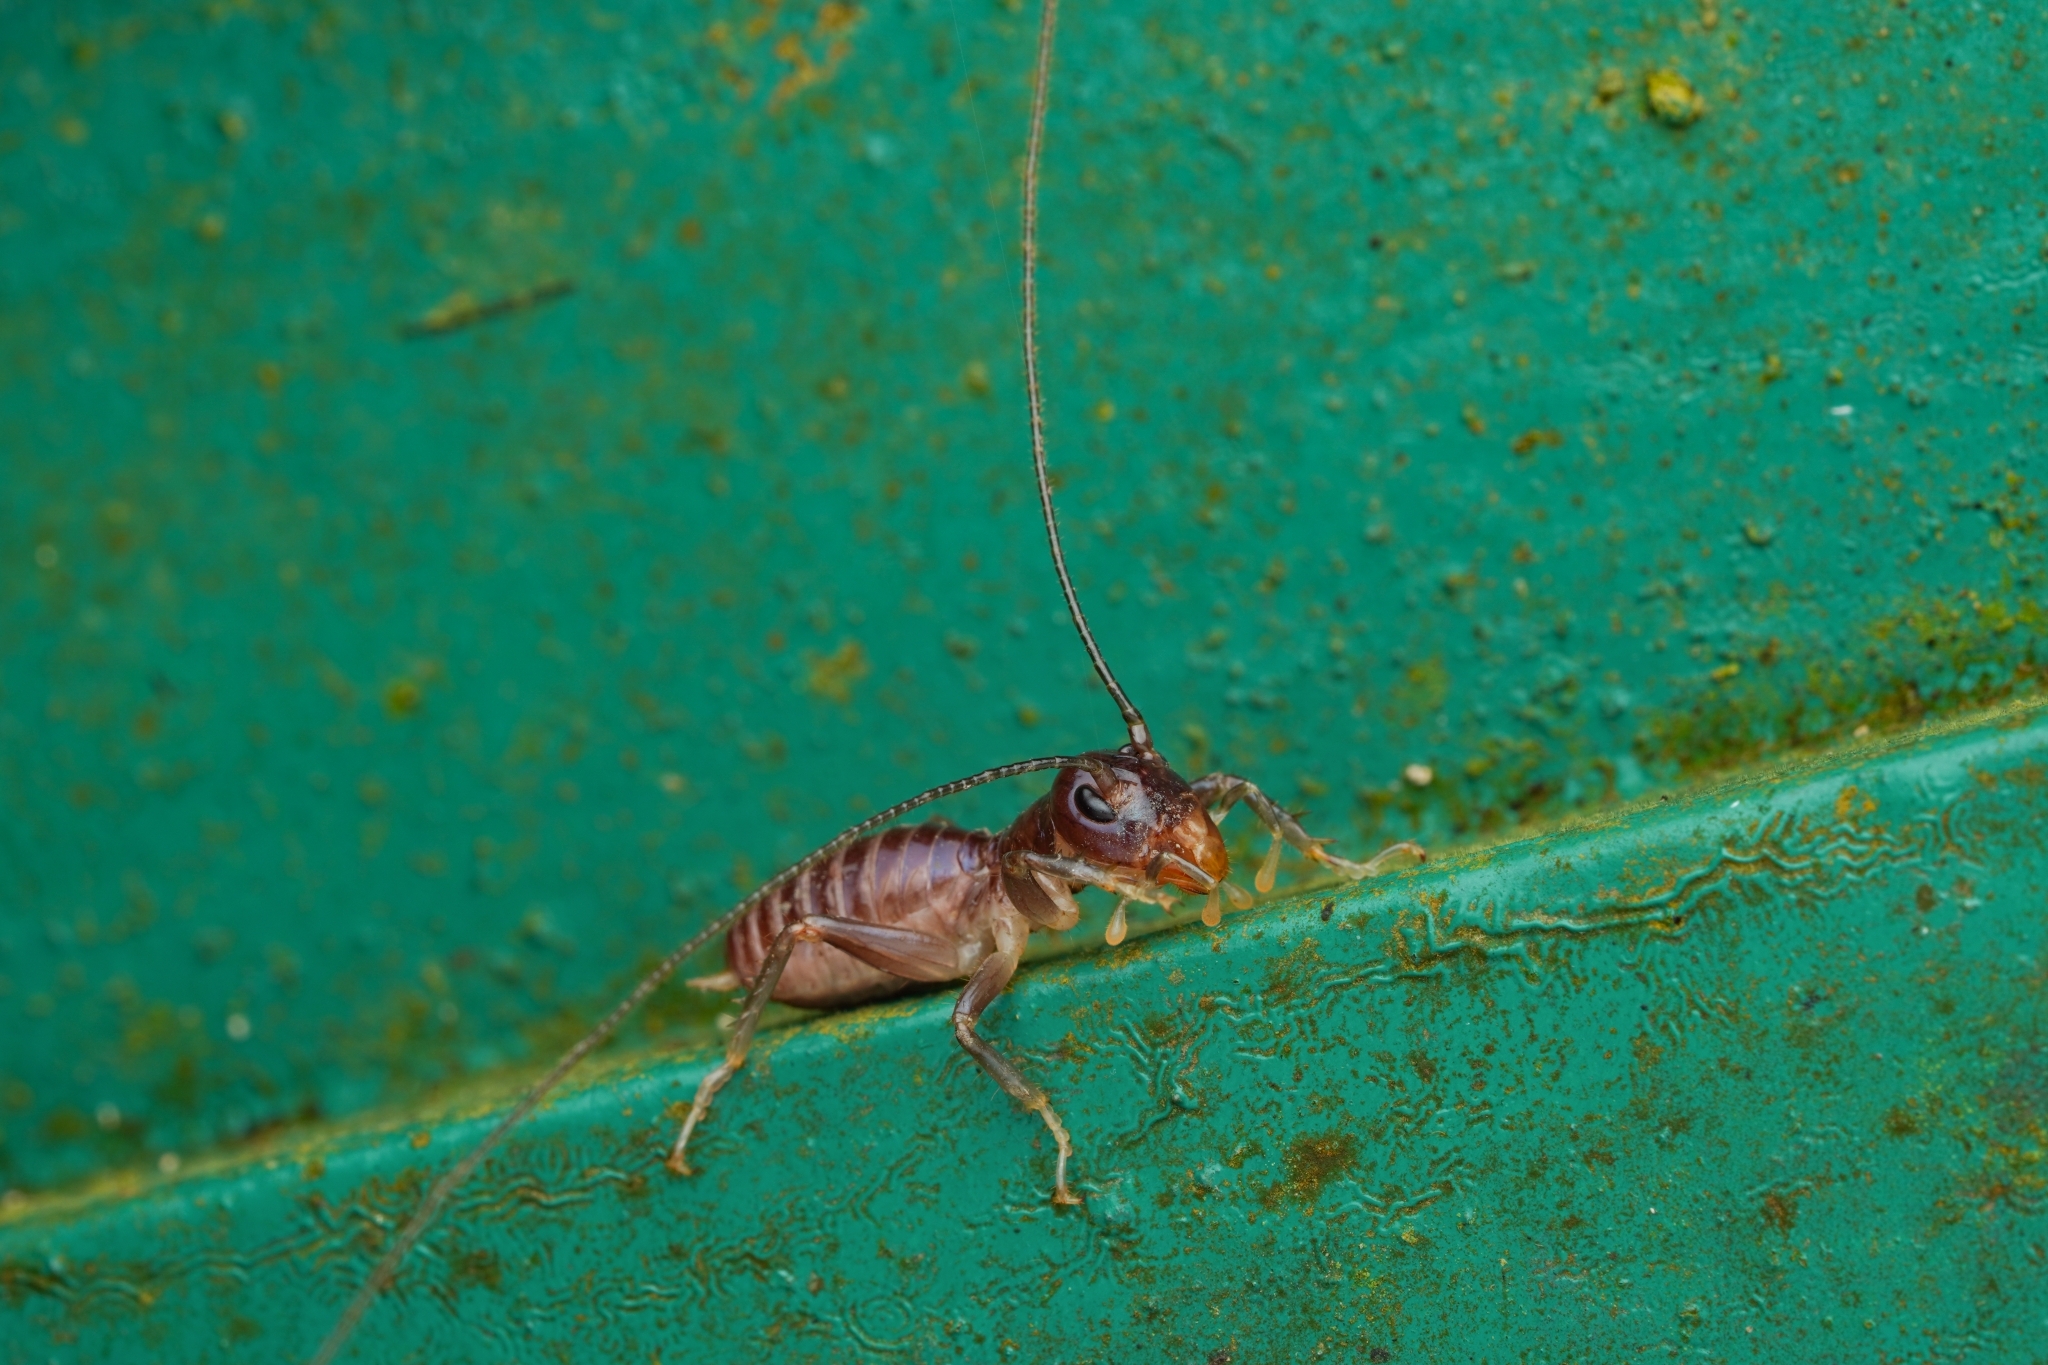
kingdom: Animalia
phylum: Arthropoda
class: Insecta
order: Orthoptera
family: Stenopelmatidae
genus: Sia
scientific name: Sia bugajus
